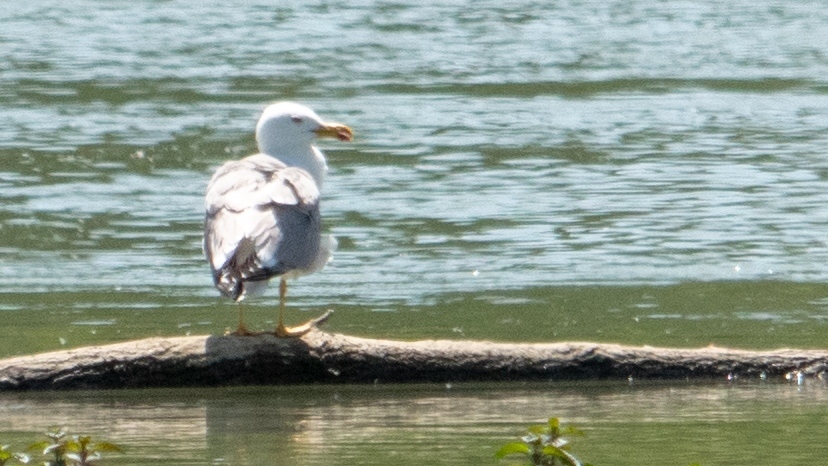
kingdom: Animalia
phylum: Chordata
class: Aves
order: Charadriiformes
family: Laridae
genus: Larus
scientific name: Larus michahellis
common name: Yellow-legged gull
